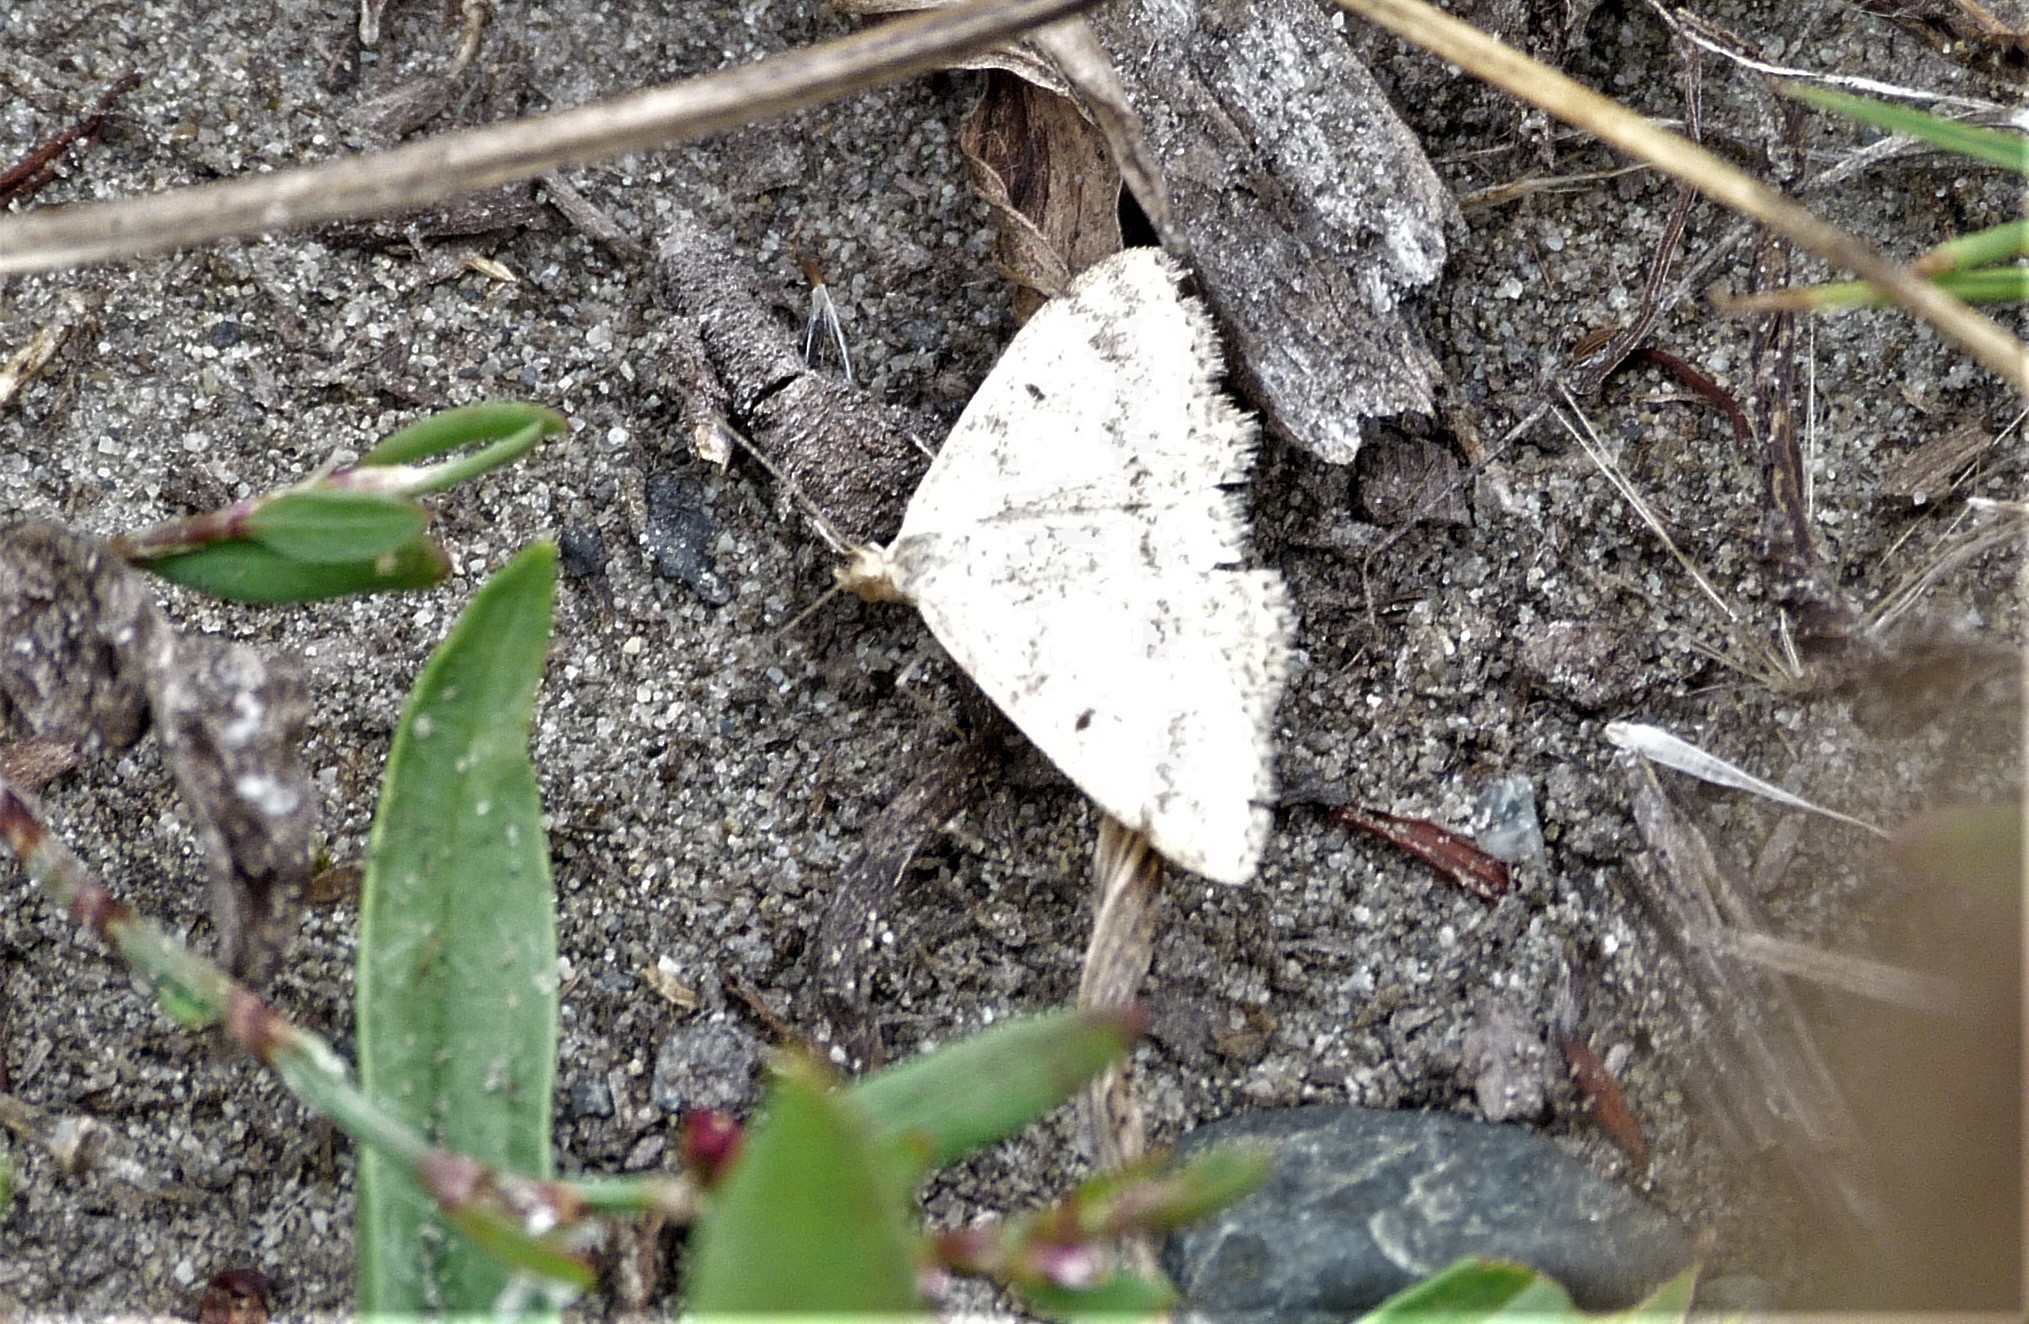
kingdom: Animalia
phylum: Arthropoda
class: Insecta
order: Lepidoptera
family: Geometridae
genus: Scopula
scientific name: Scopula rubraria
